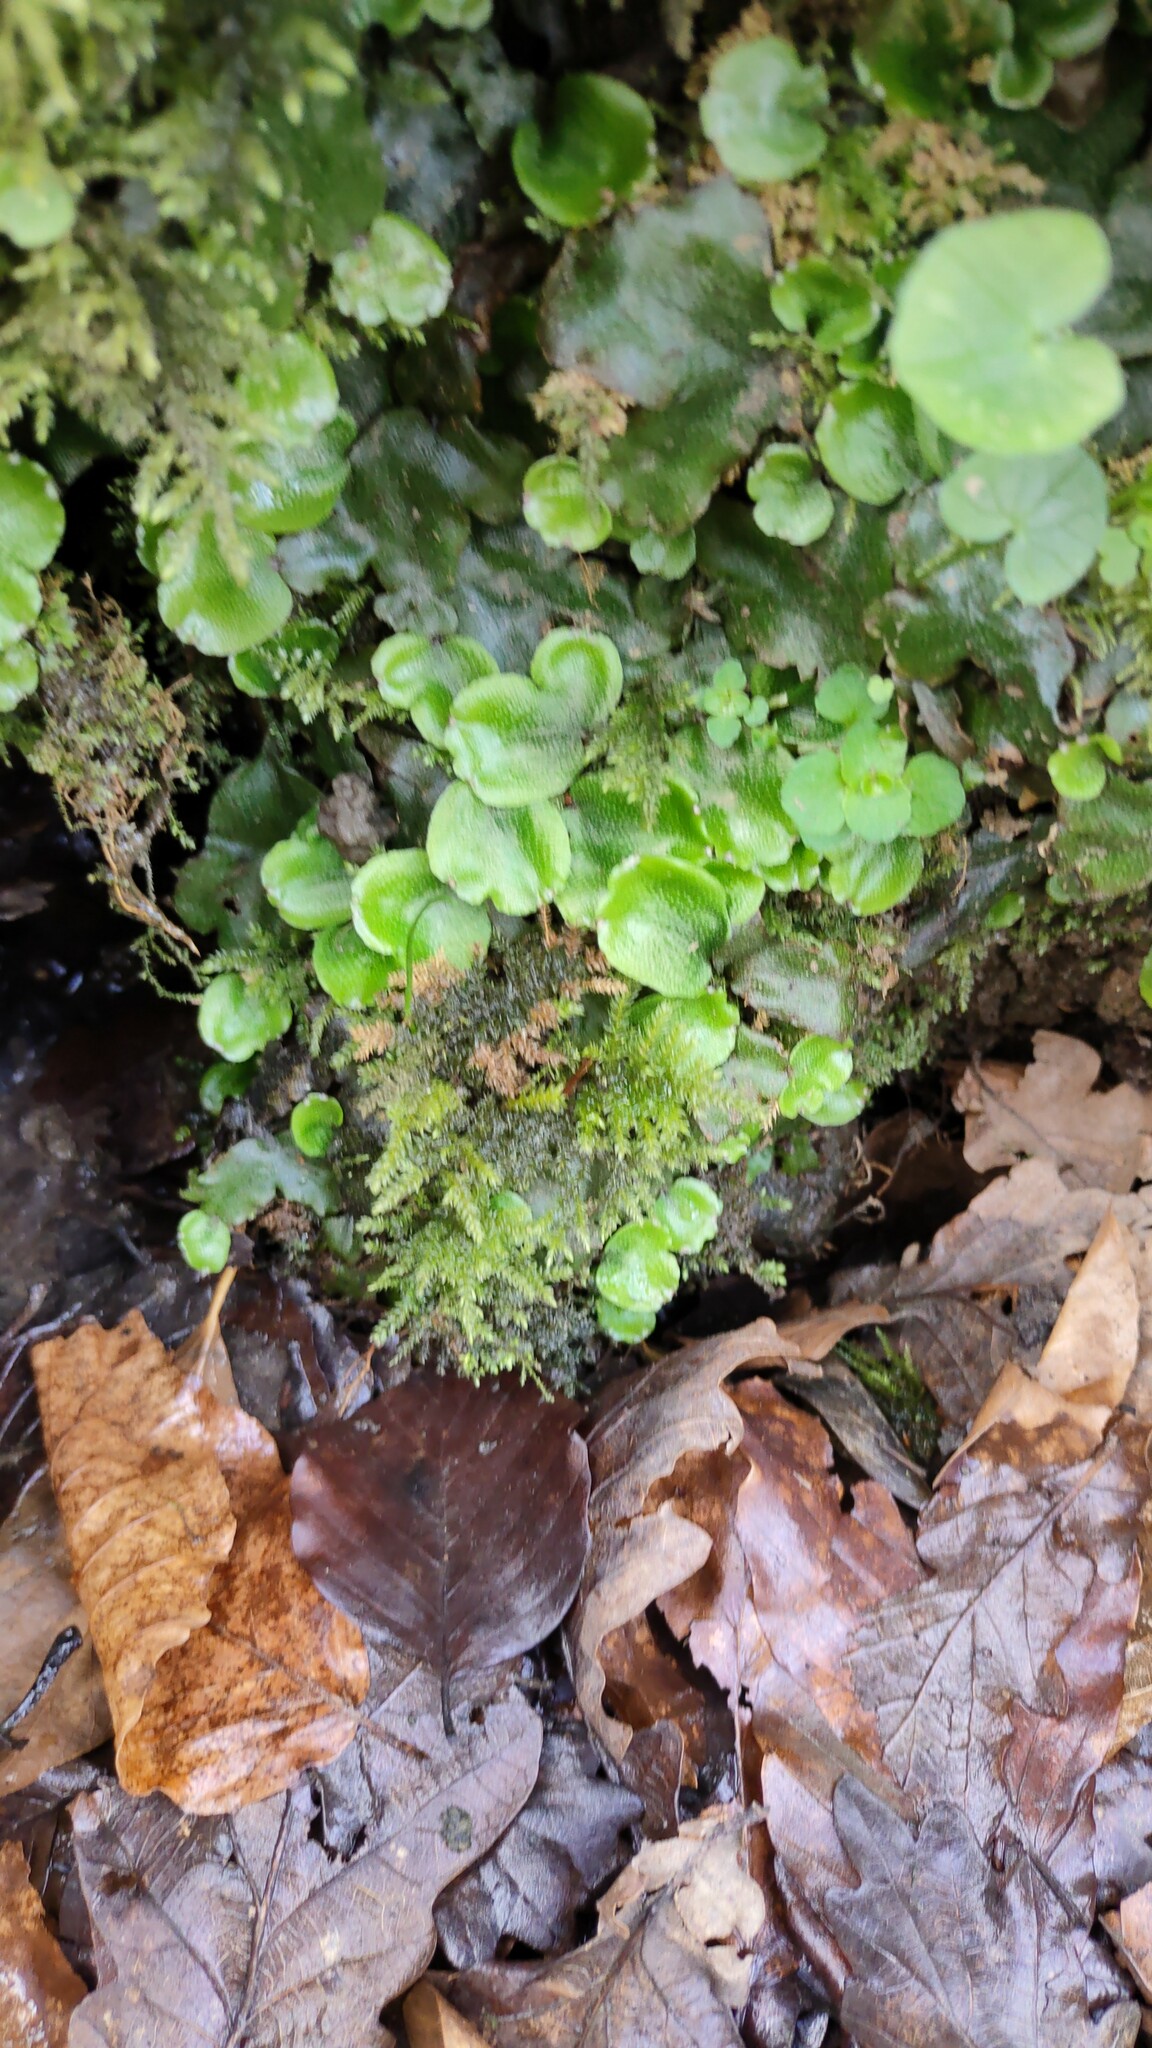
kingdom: Plantae
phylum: Marchantiophyta
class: Marchantiopsida
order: Marchantiales
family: Conocephalaceae
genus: Conocephalum
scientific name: Conocephalum conicum
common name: Great scented liverwort
